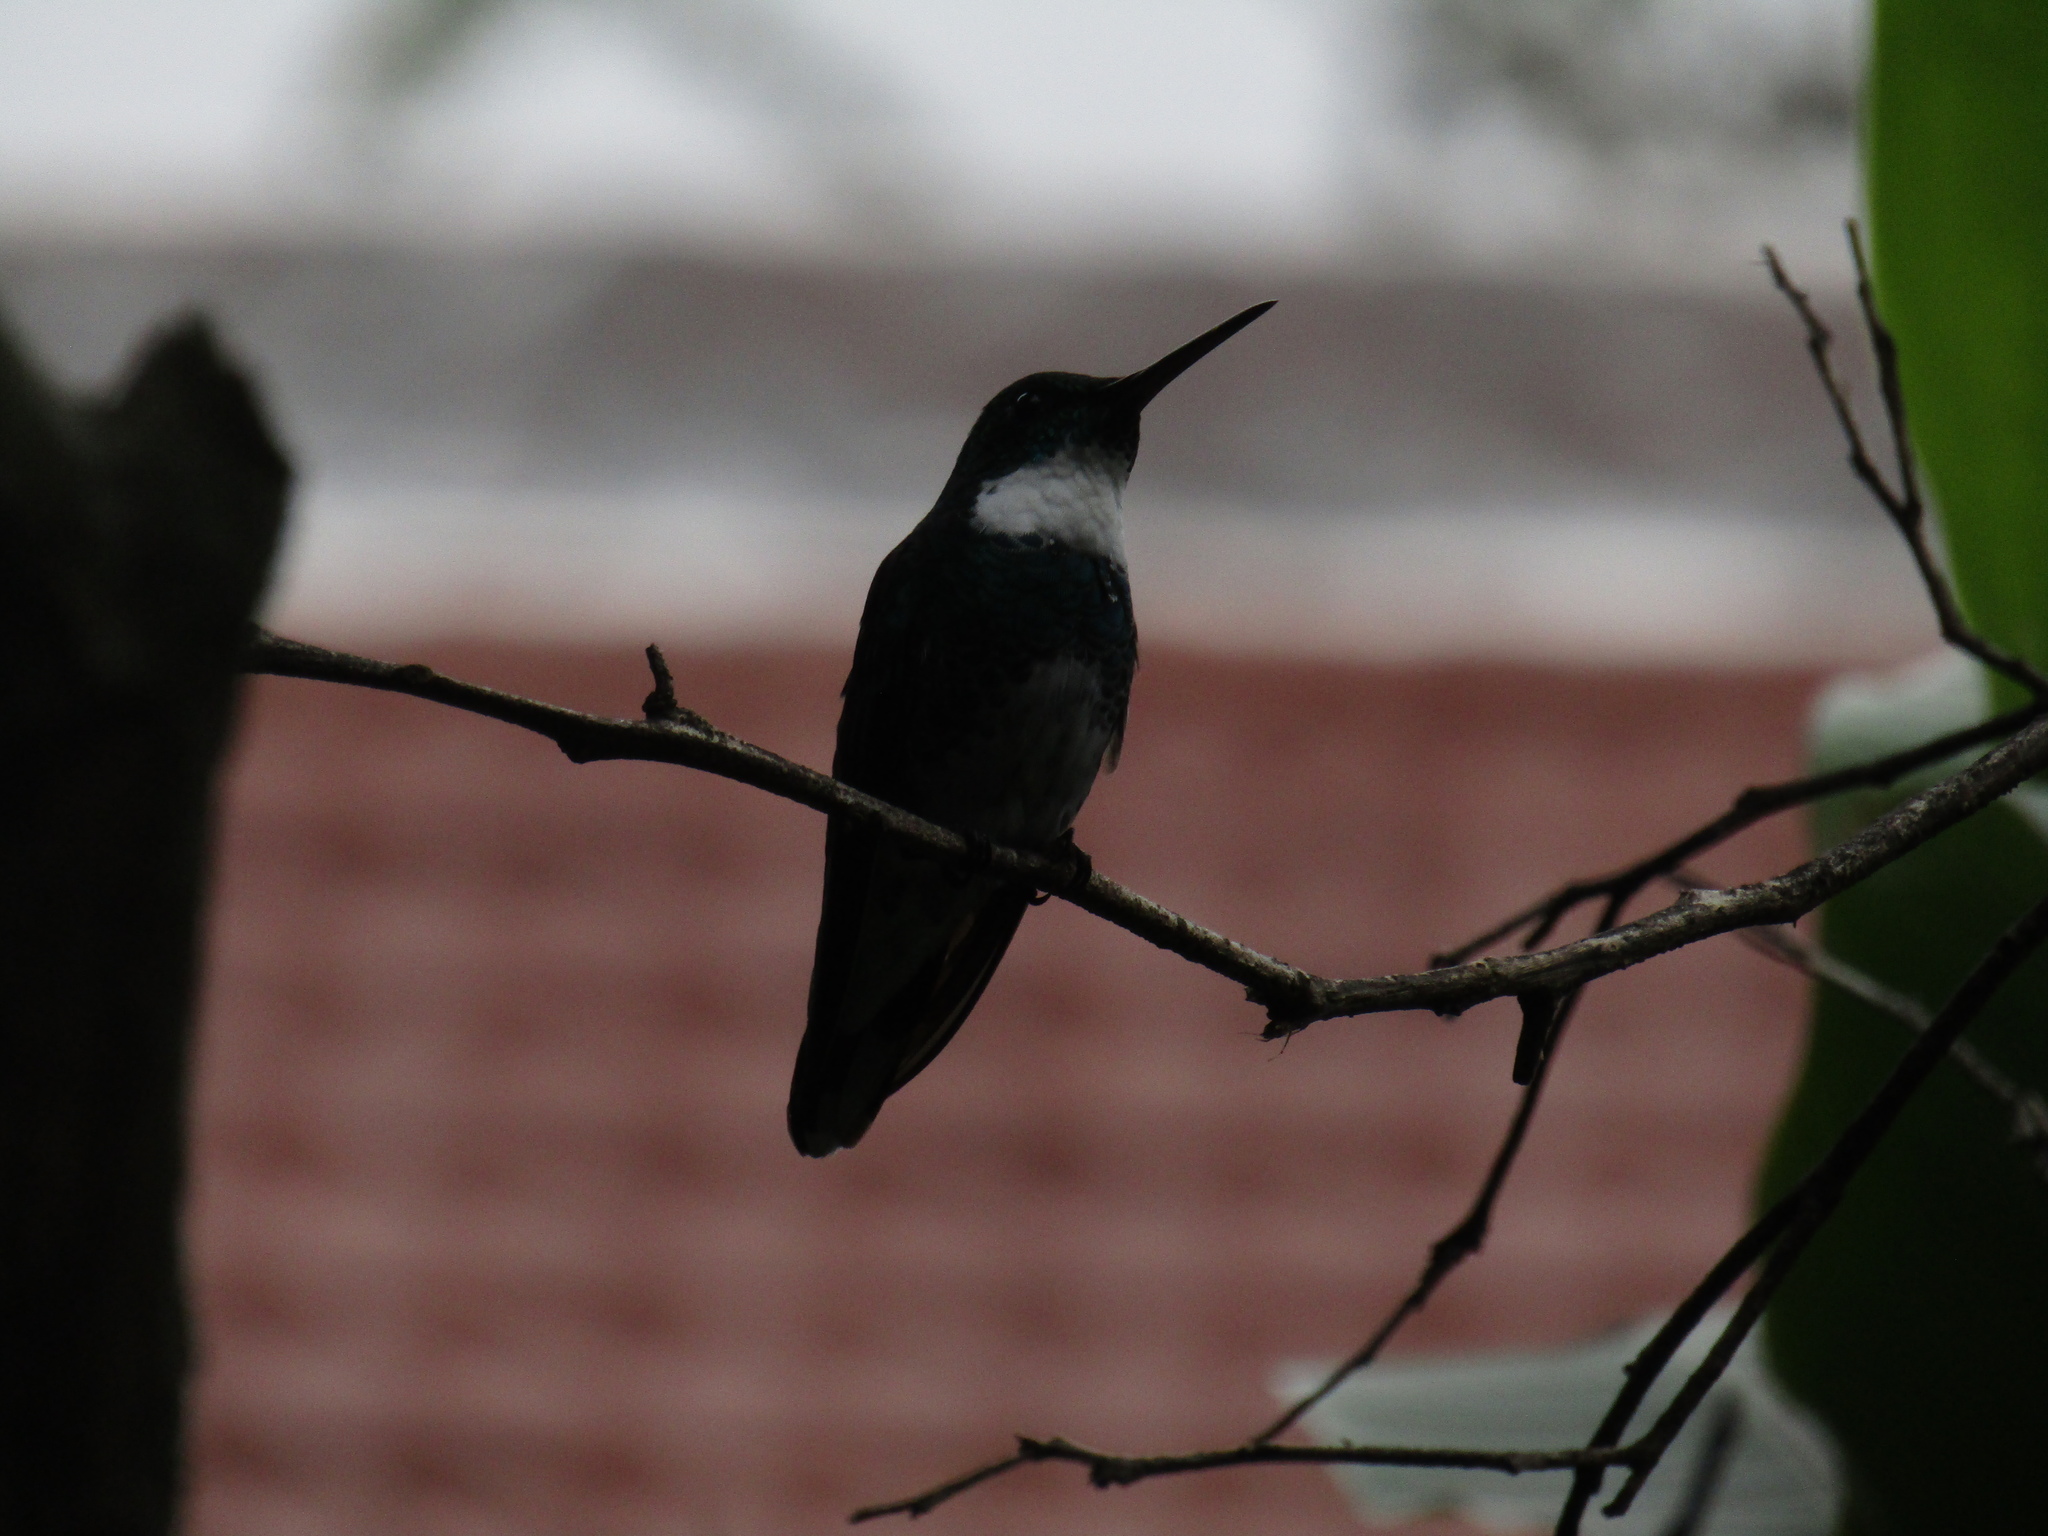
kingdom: Animalia
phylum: Chordata
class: Aves
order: Apodiformes
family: Trochilidae
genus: Leucochloris
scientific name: Leucochloris albicollis
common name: White-throated hummingbird
